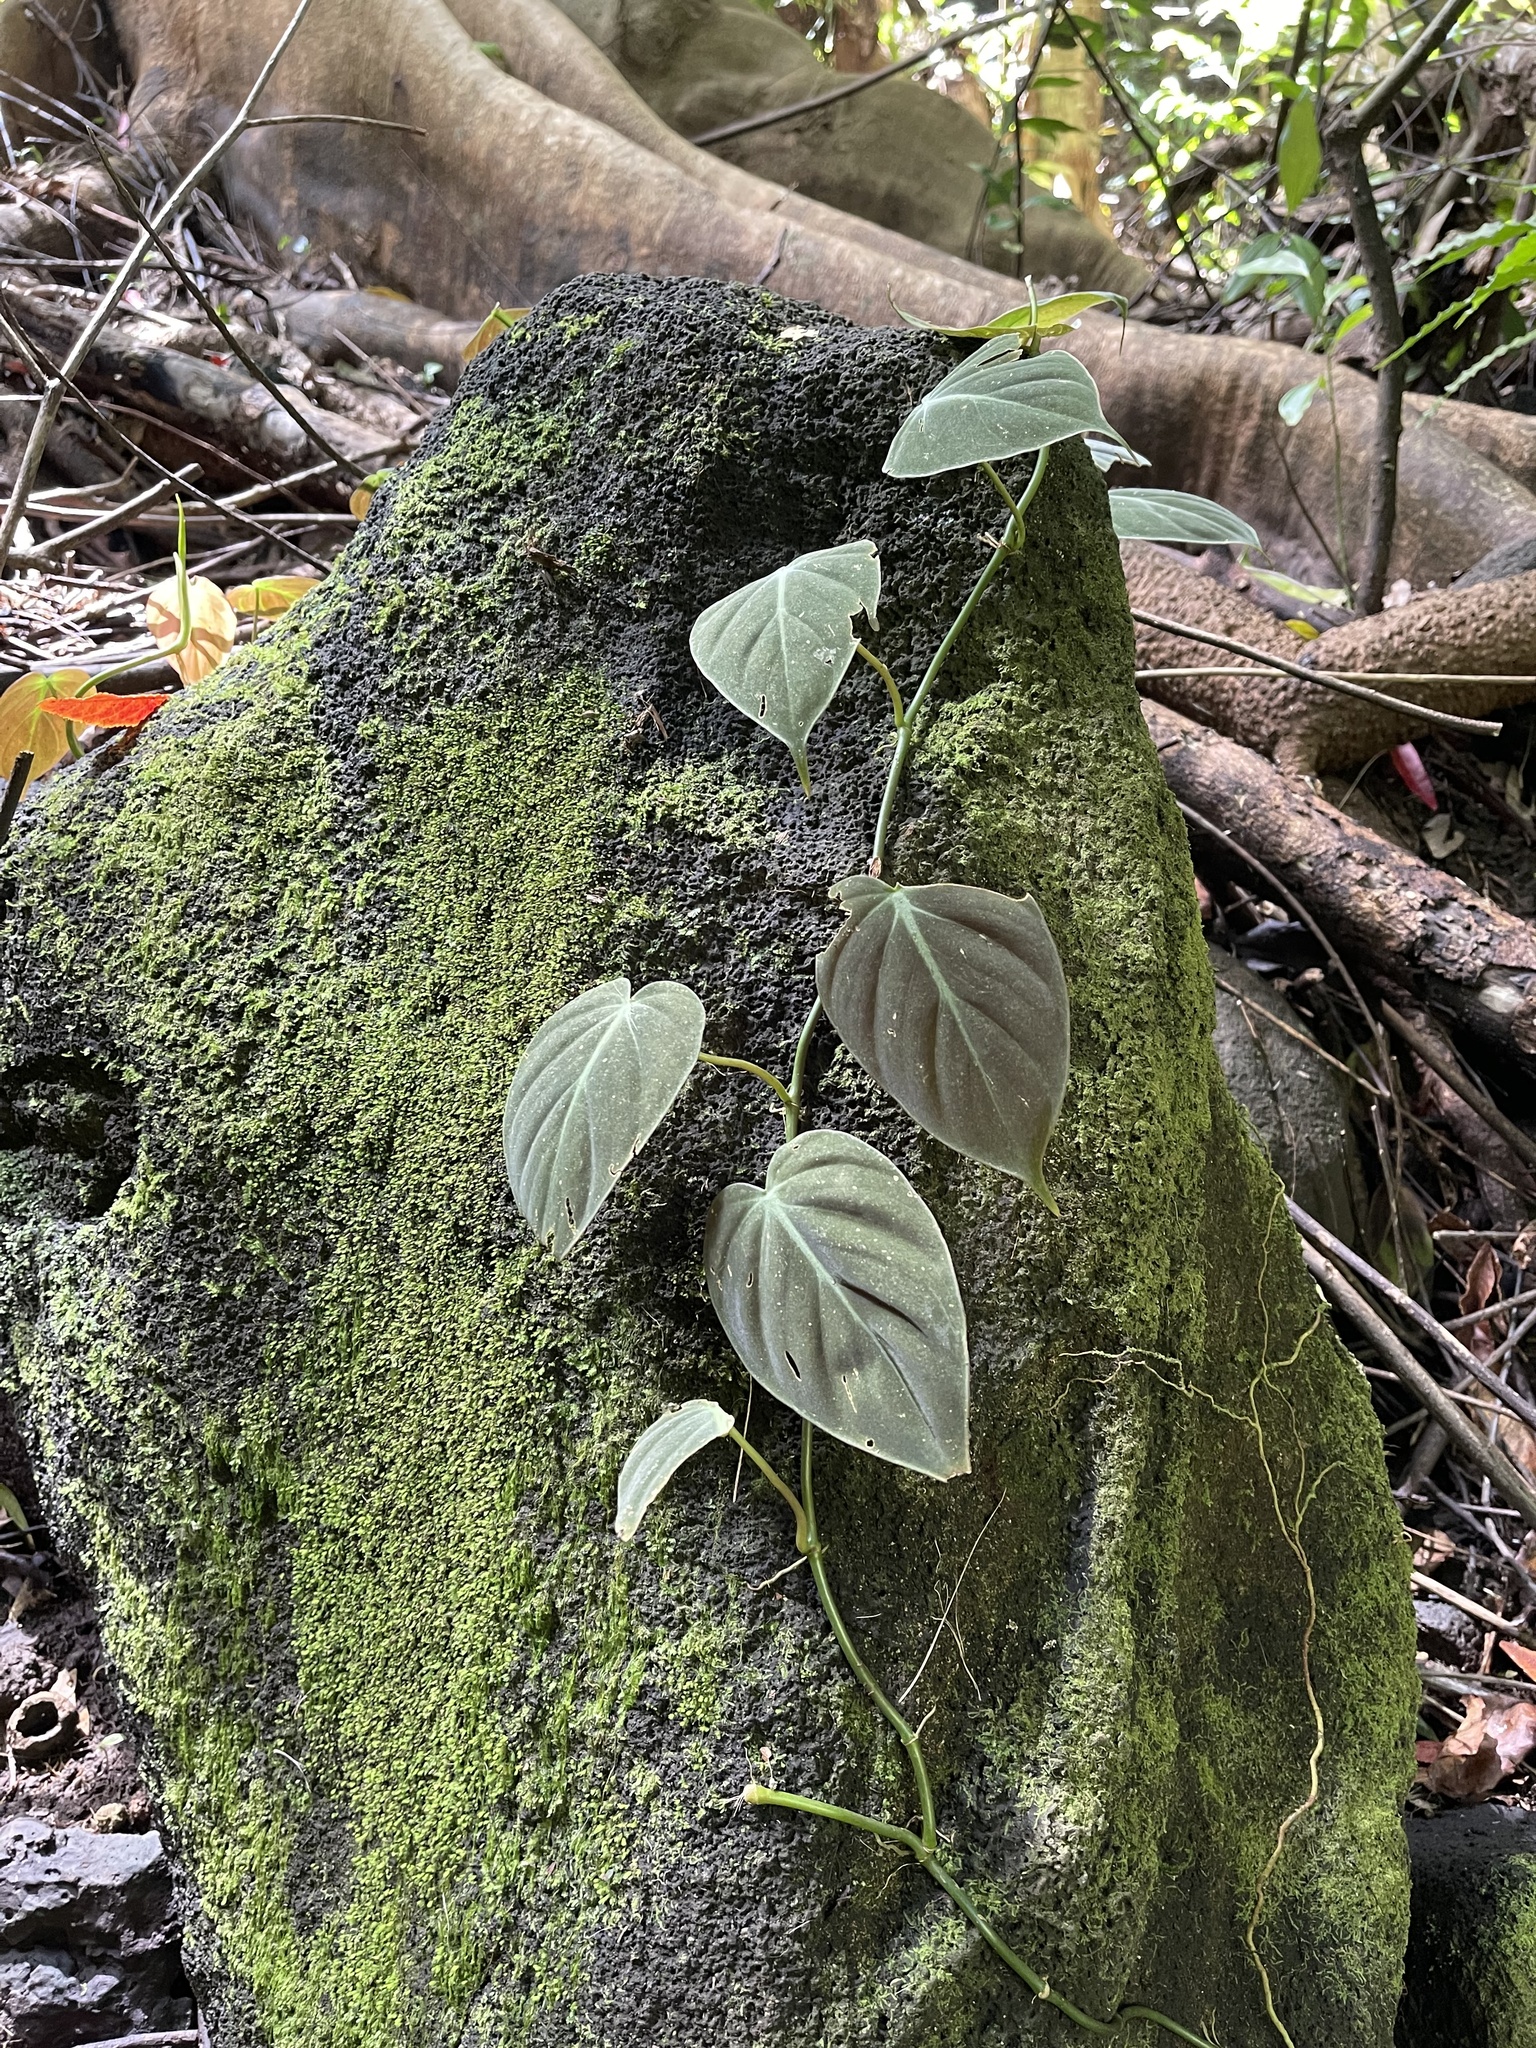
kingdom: Plantae
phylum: Tracheophyta
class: Liliopsida
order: Alismatales
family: Araceae
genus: Philodendron
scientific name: Philodendron hederaceum
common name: Vilevine
